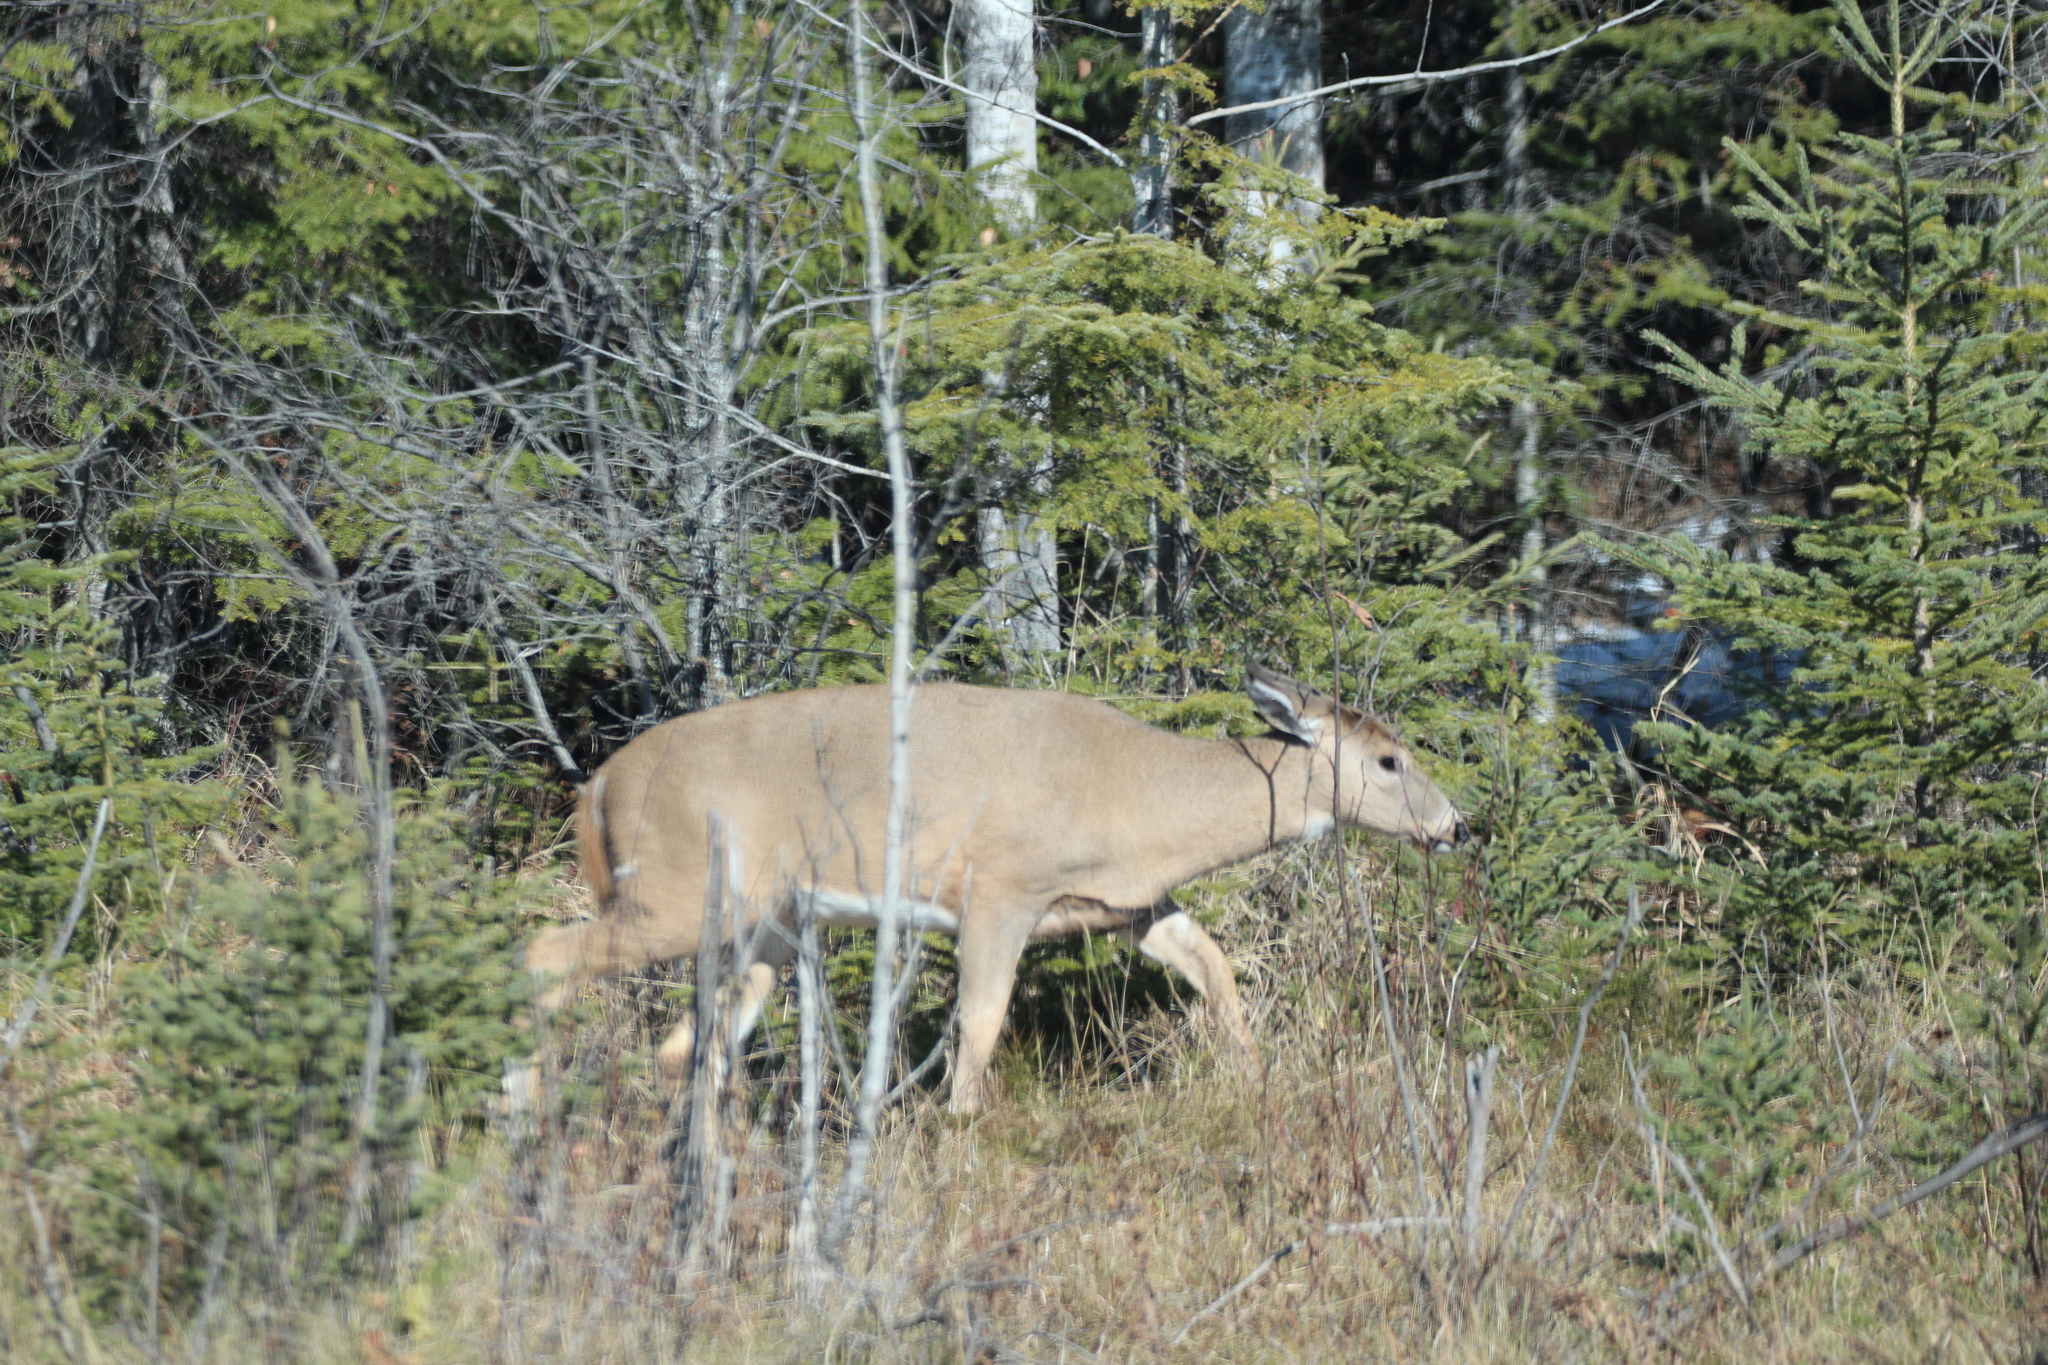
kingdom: Animalia
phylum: Chordata
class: Mammalia
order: Artiodactyla
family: Cervidae
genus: Odocoileus
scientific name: Odocoileus virginianus
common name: White-tailed deer
